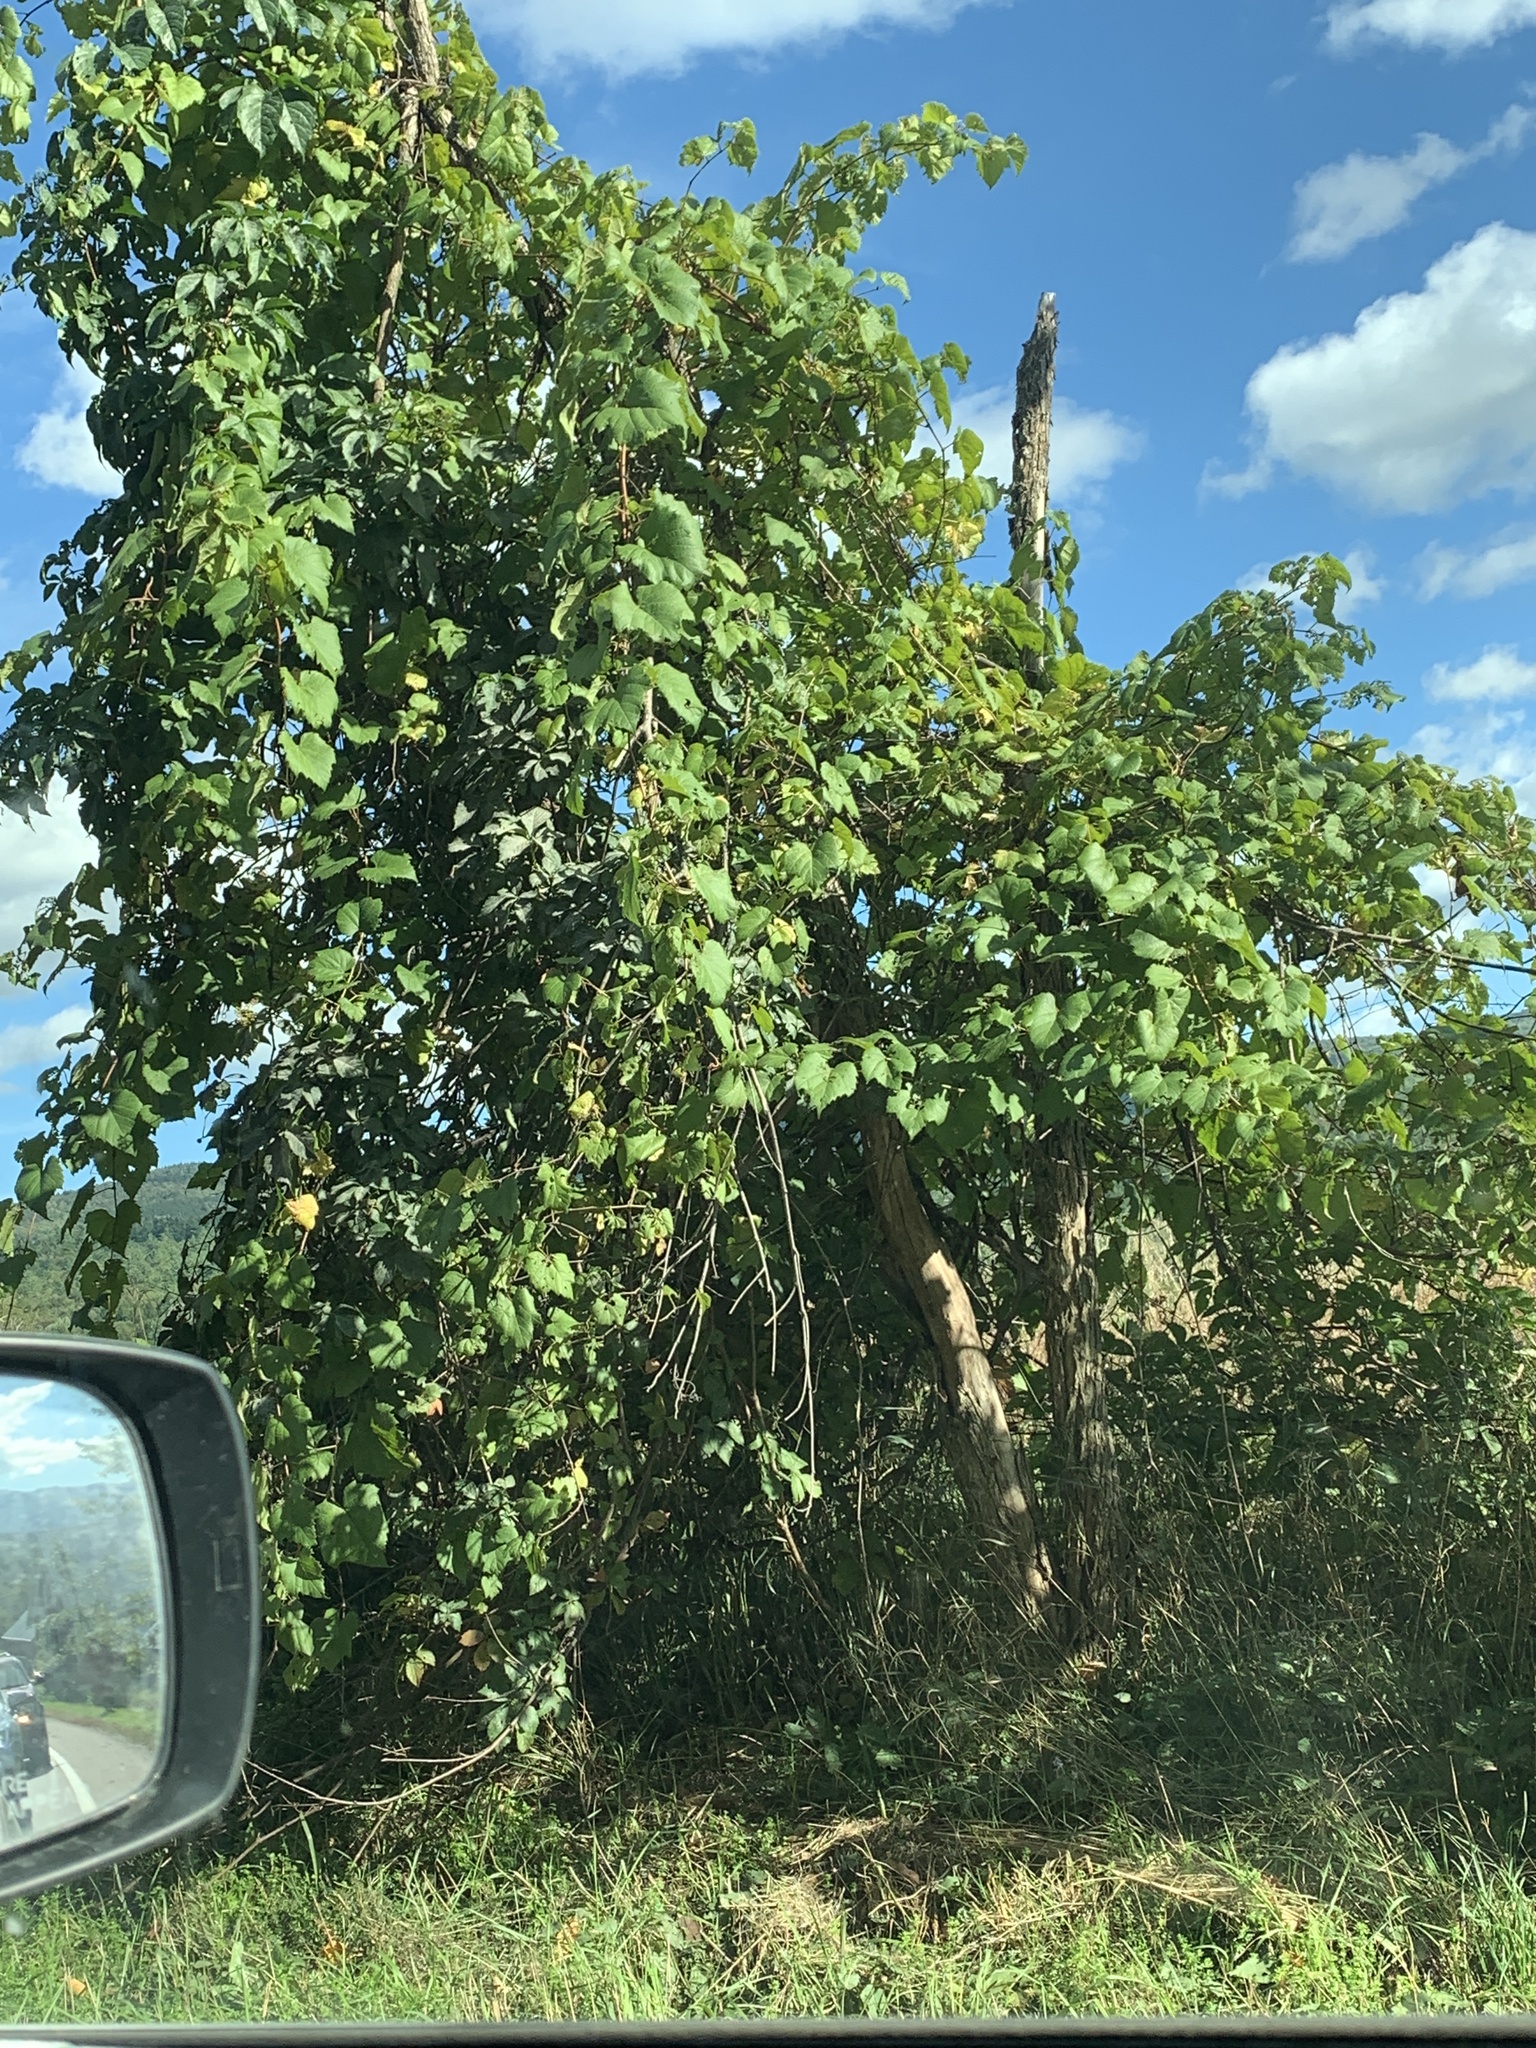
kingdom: Plantae
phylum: Tracheophyta
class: Magnoliopsida
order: Vitales
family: Vitaceae
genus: Vitis
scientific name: Vitis riparia
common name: Frost grape
